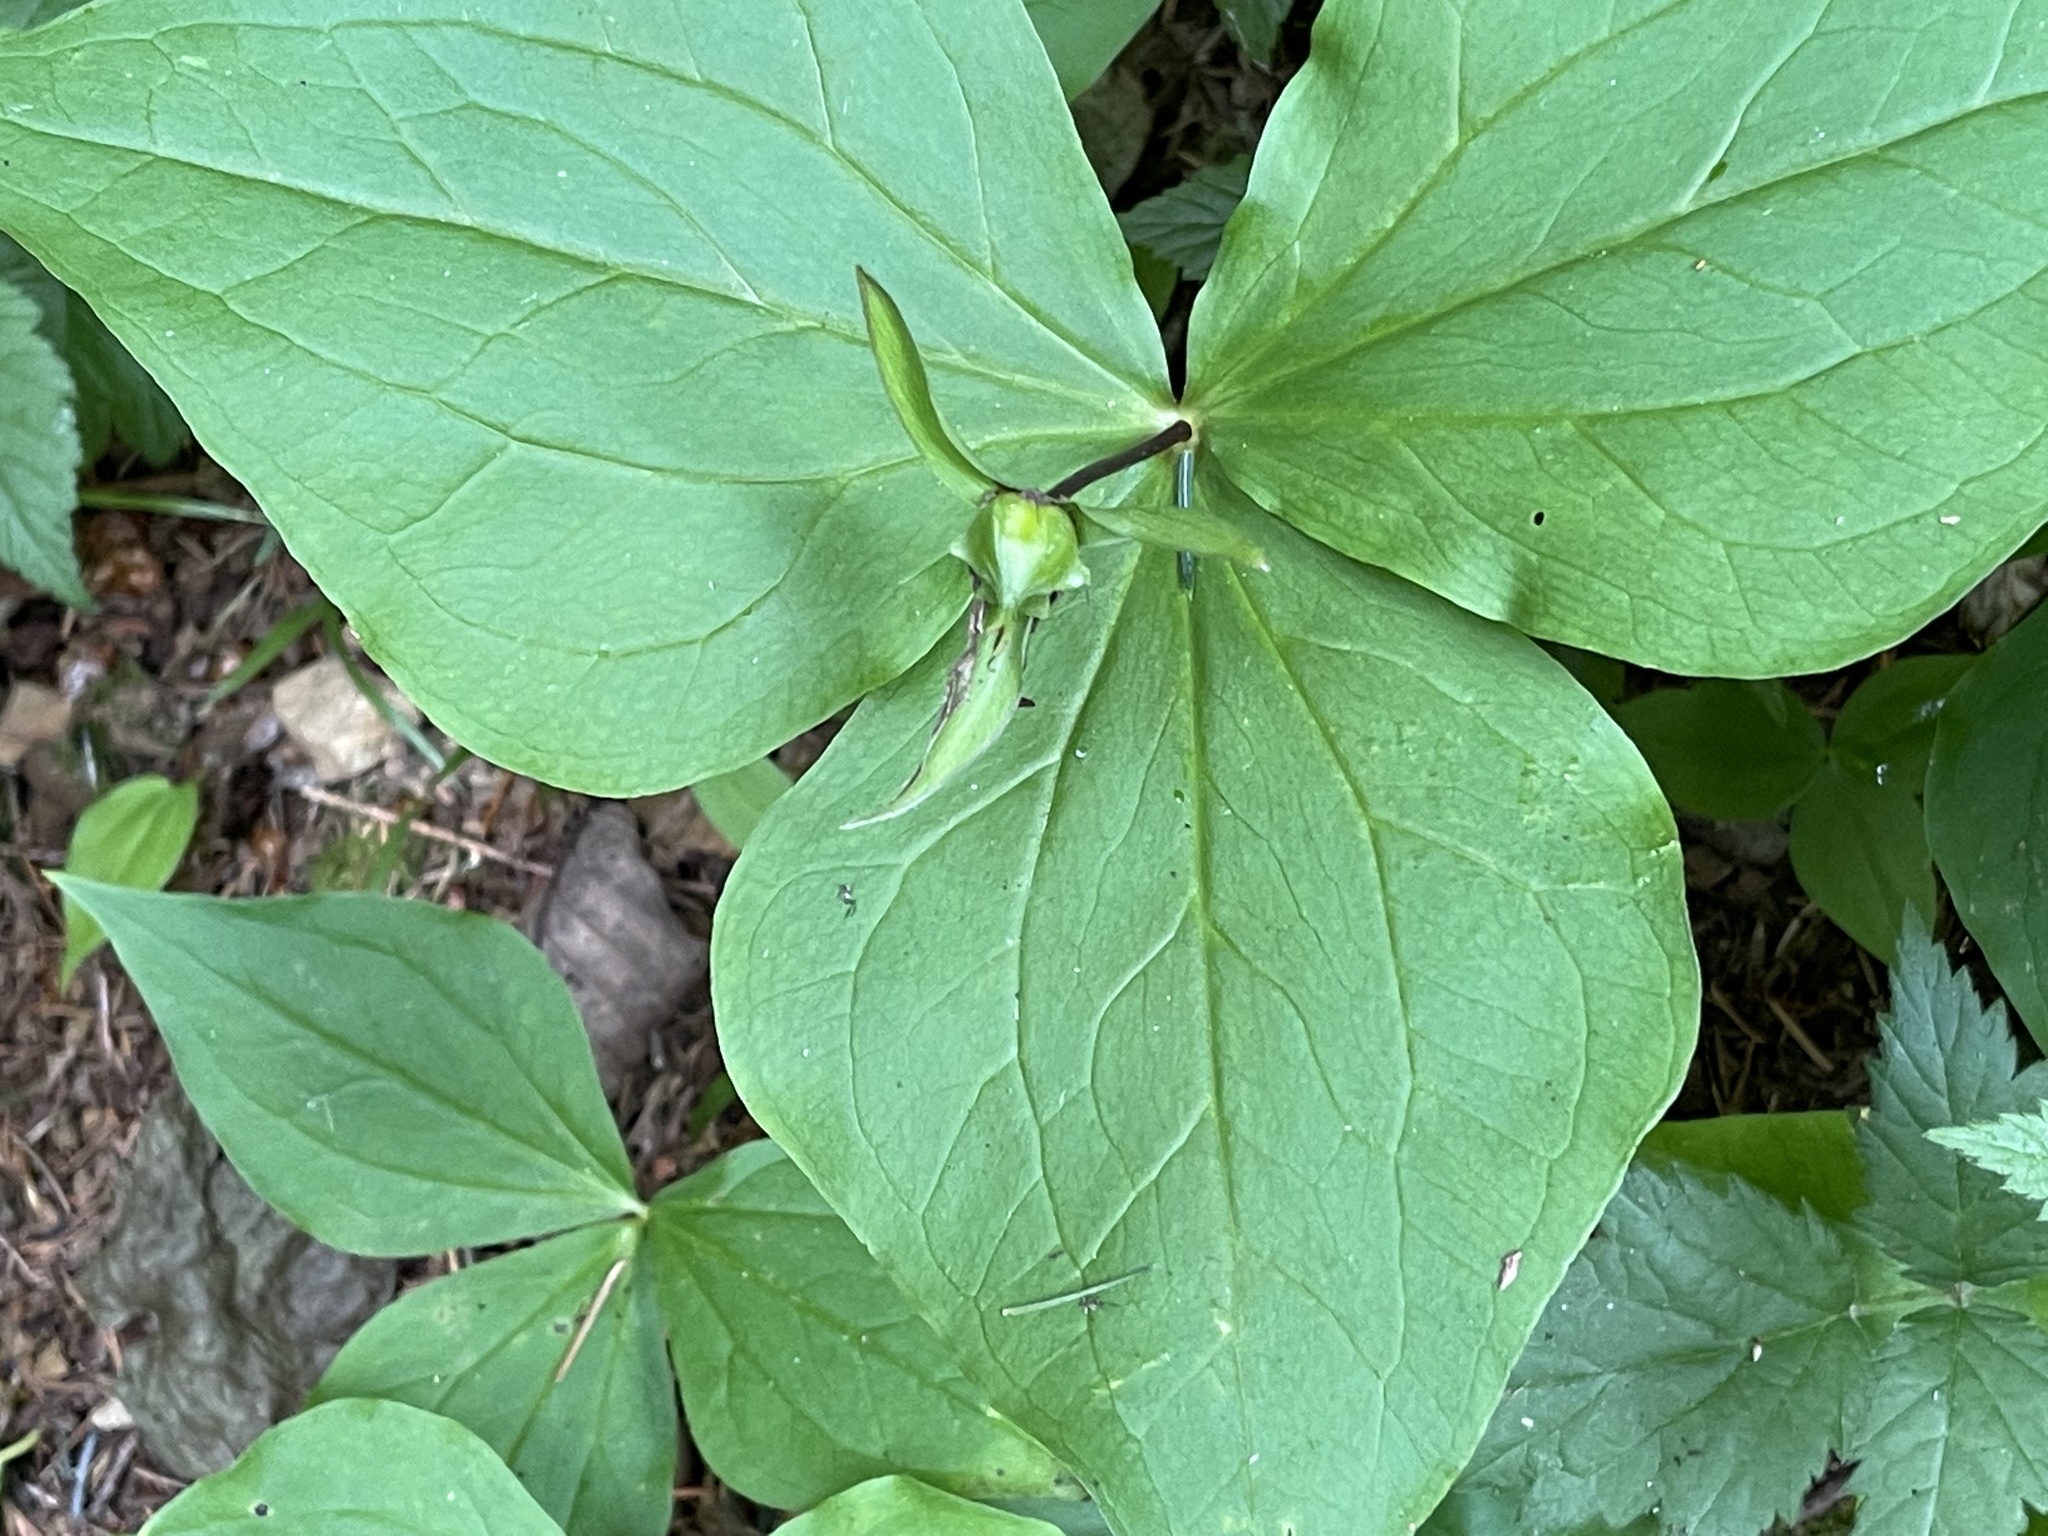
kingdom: Plantae
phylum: Tracheophyta
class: Liliopsida
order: Liliales
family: Melanthiaceae
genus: Trillium
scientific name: Trillium ovatum
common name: Pacific trillium
